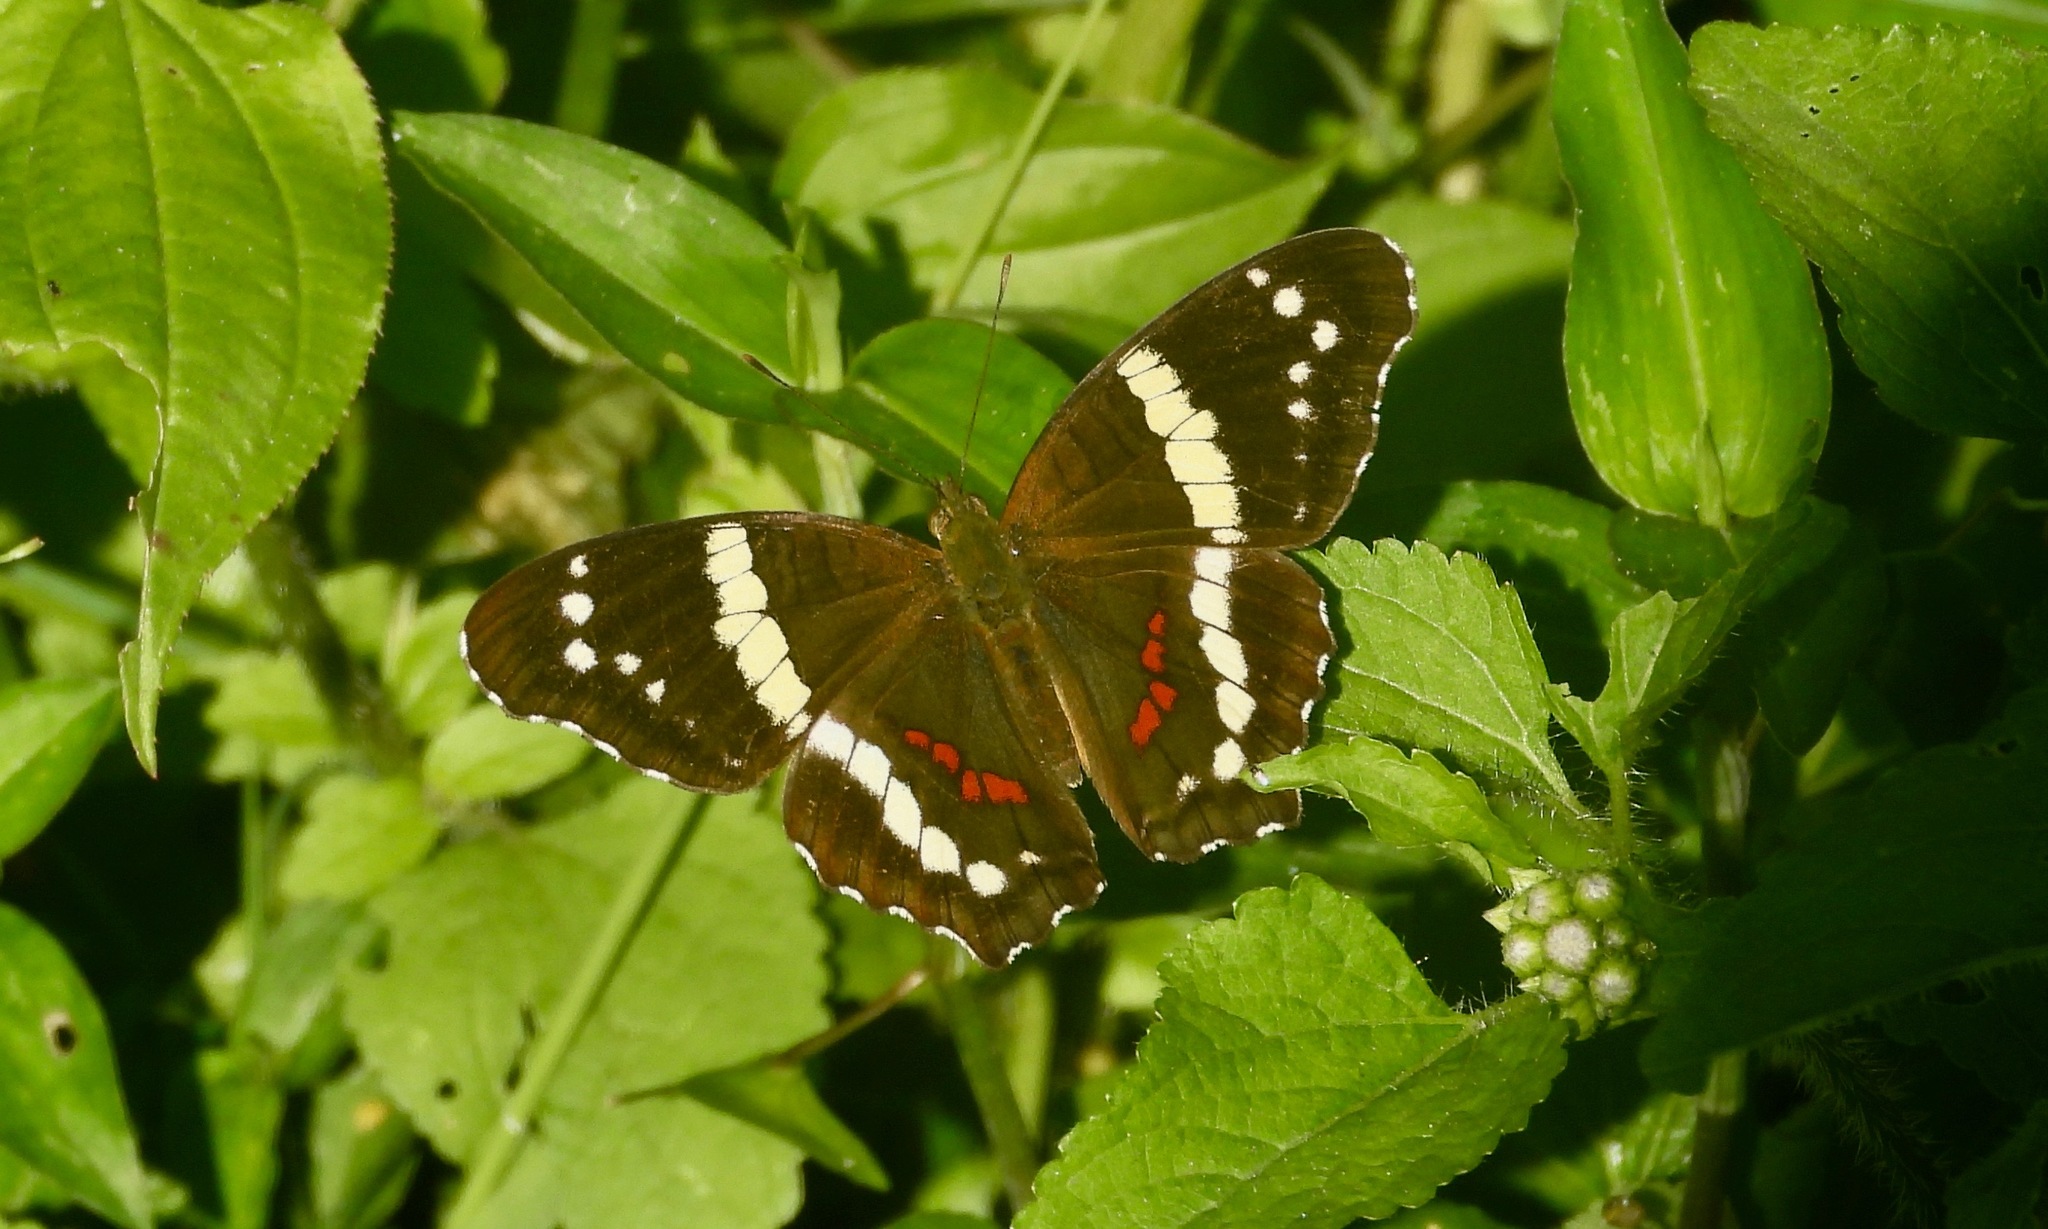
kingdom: Animalia
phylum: Arthropoda
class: Insecta
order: Lepidoptera
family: Nymphalidae
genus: Anartia
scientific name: Anartia fatima
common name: Banded peacock
